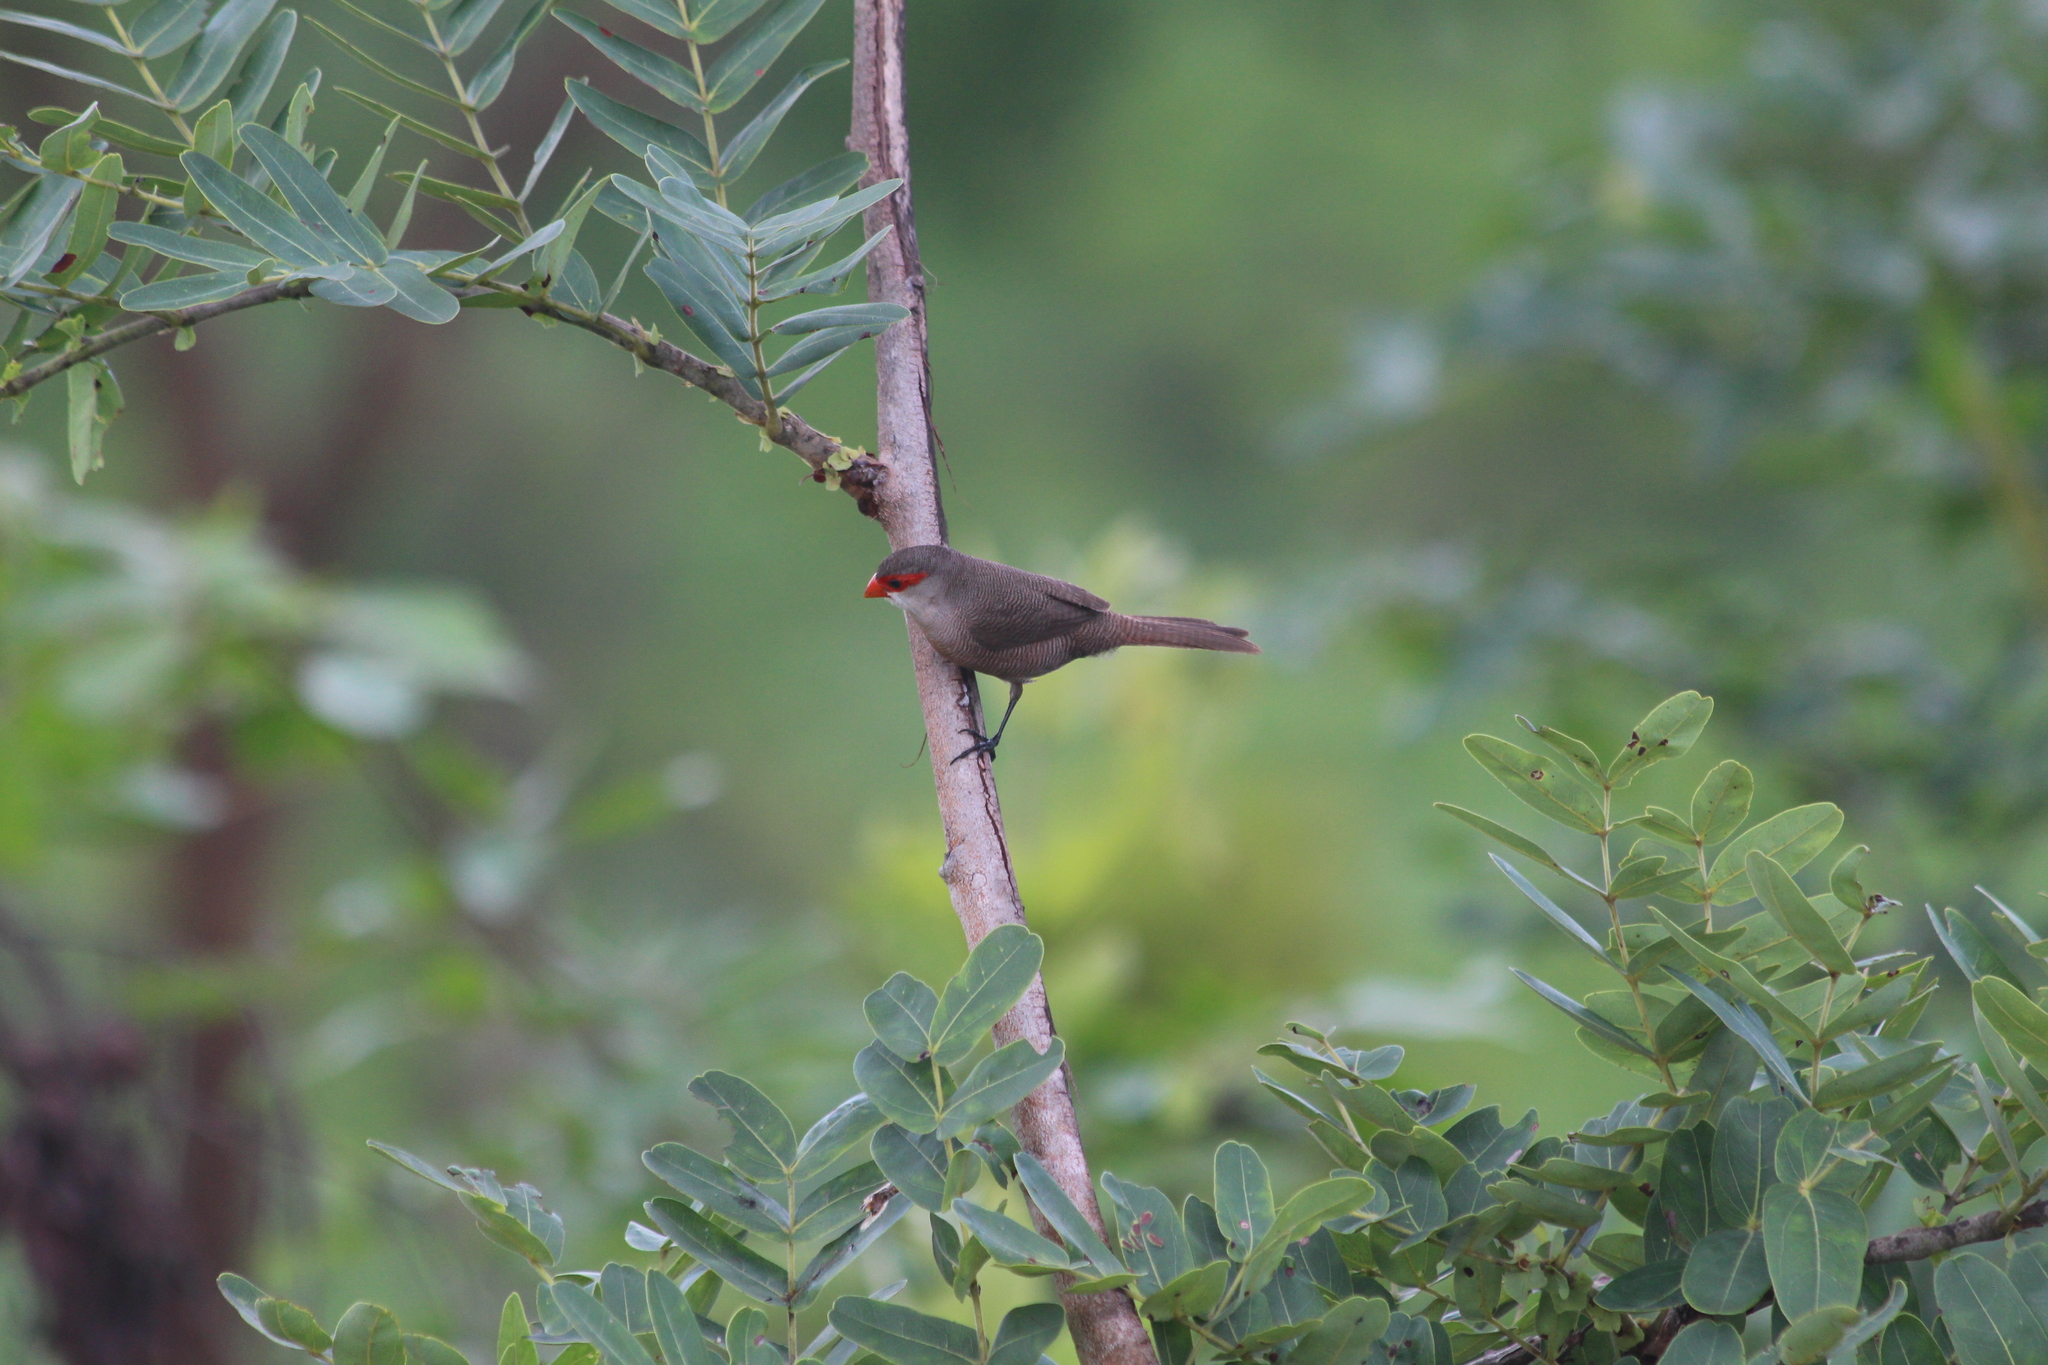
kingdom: Animalia
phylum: Chordata
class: Aves
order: Passeriformes
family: Estrildidae
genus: Estrilda
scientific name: Estrilda astrild
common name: Common waxbill
